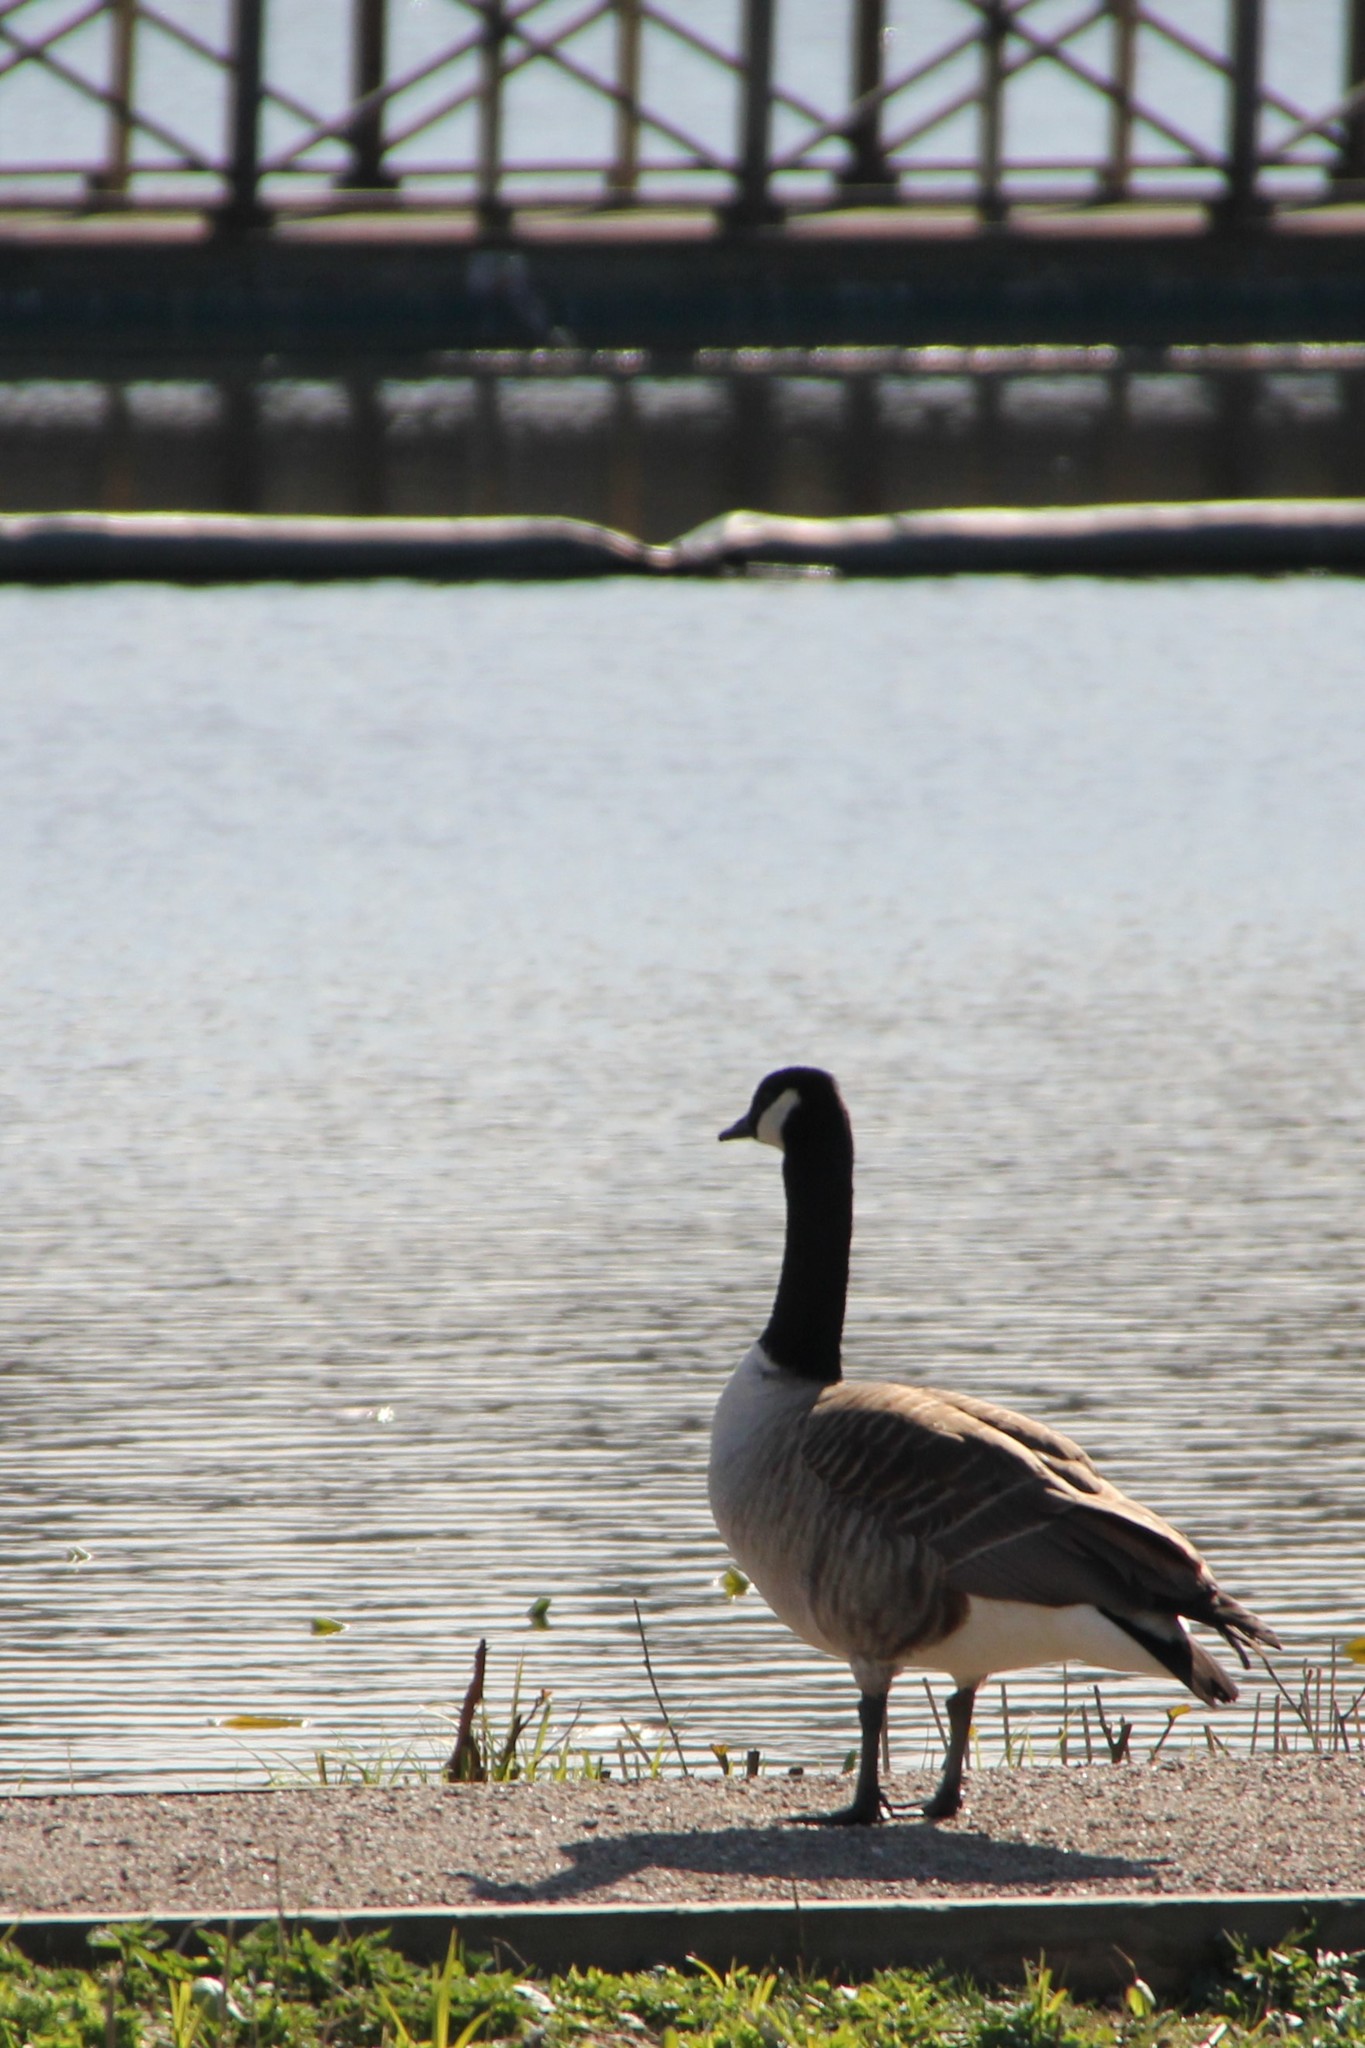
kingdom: Animalia
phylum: Chordata
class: Aves
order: Anseriformes
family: Anatidae
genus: Branta
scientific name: Branta canadensis
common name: Canada goose
